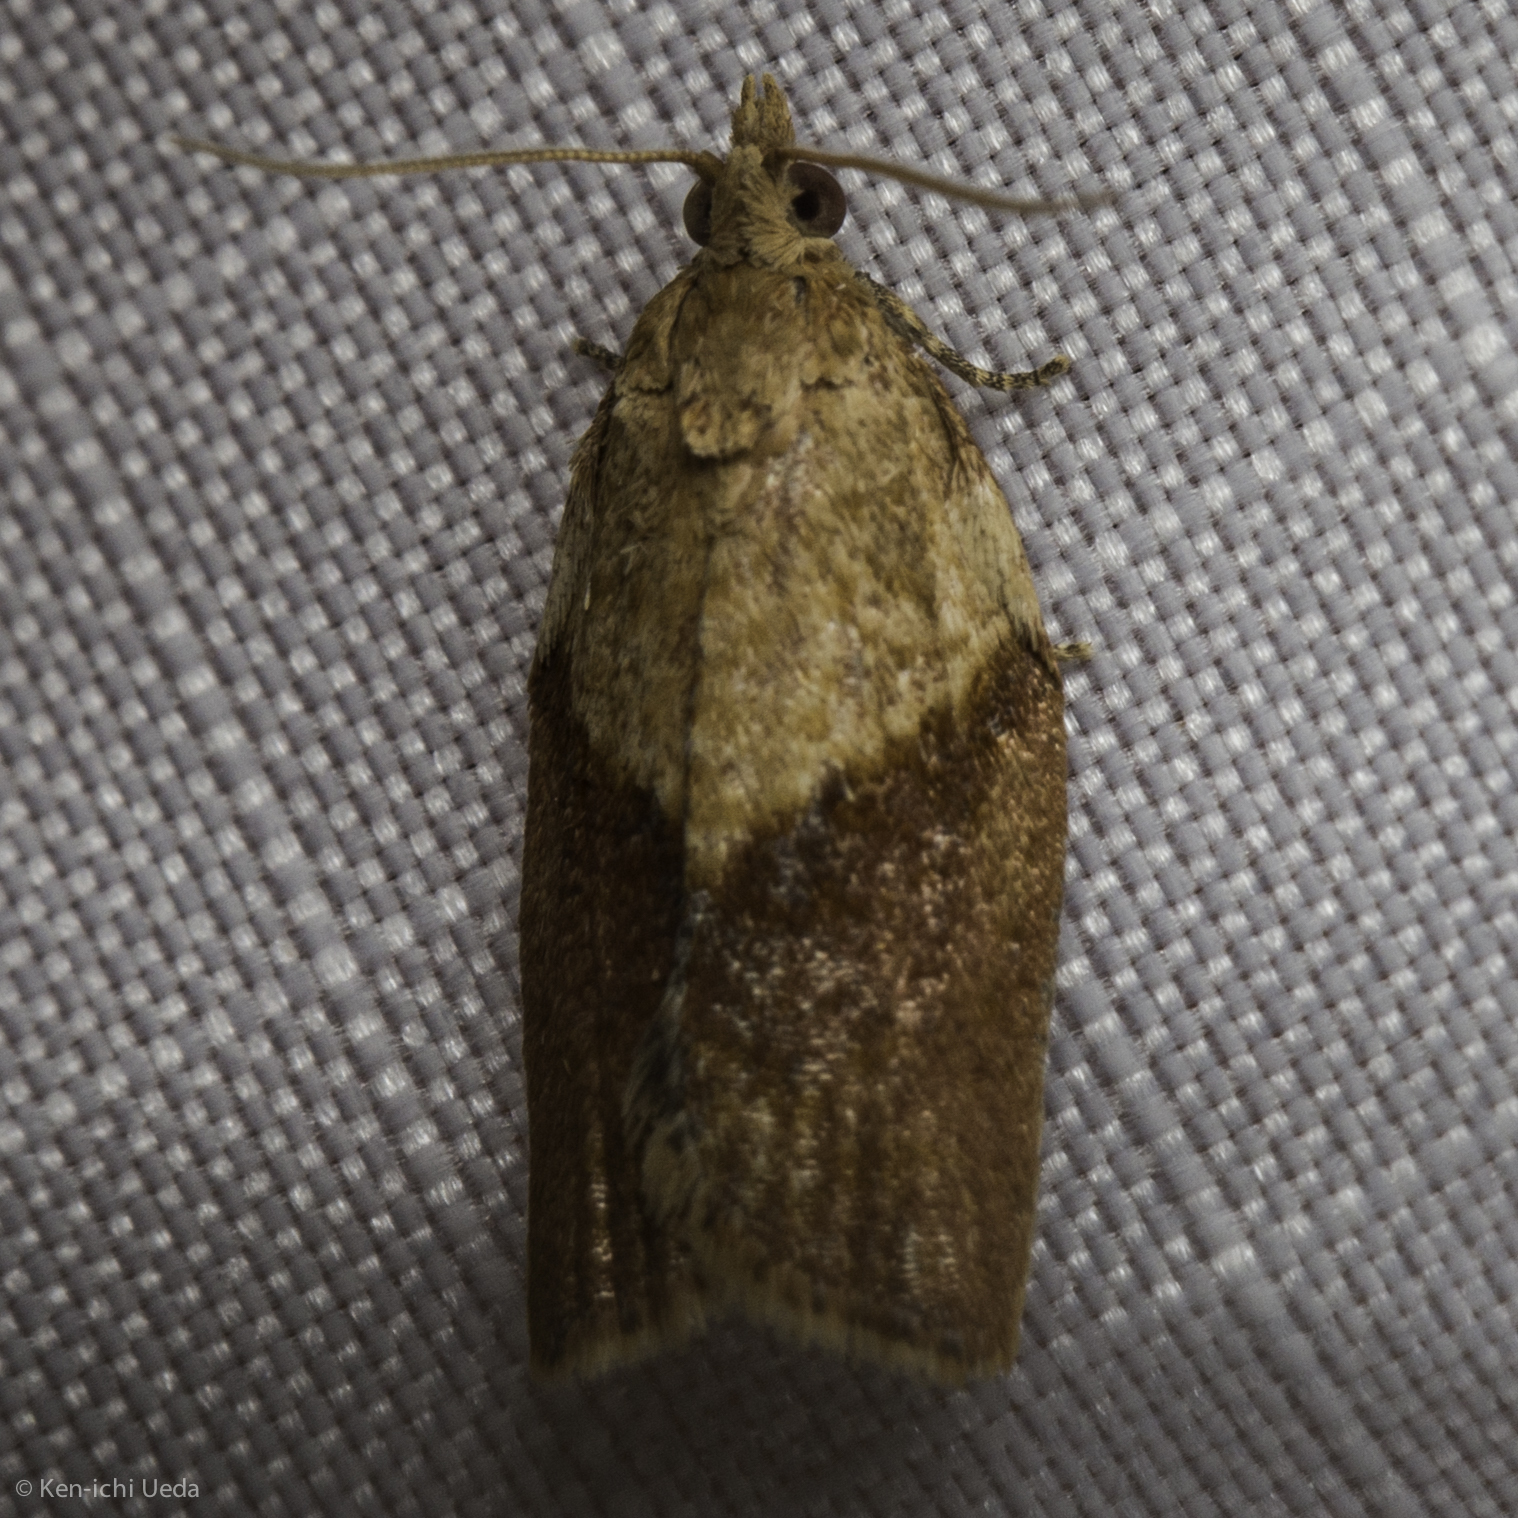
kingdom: Animalia
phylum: Arthropoda
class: Insecta
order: Lepidoptera
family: Tortricidae
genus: Epiphyas
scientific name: Epiphyas postvittana
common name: Light brown apple moth
